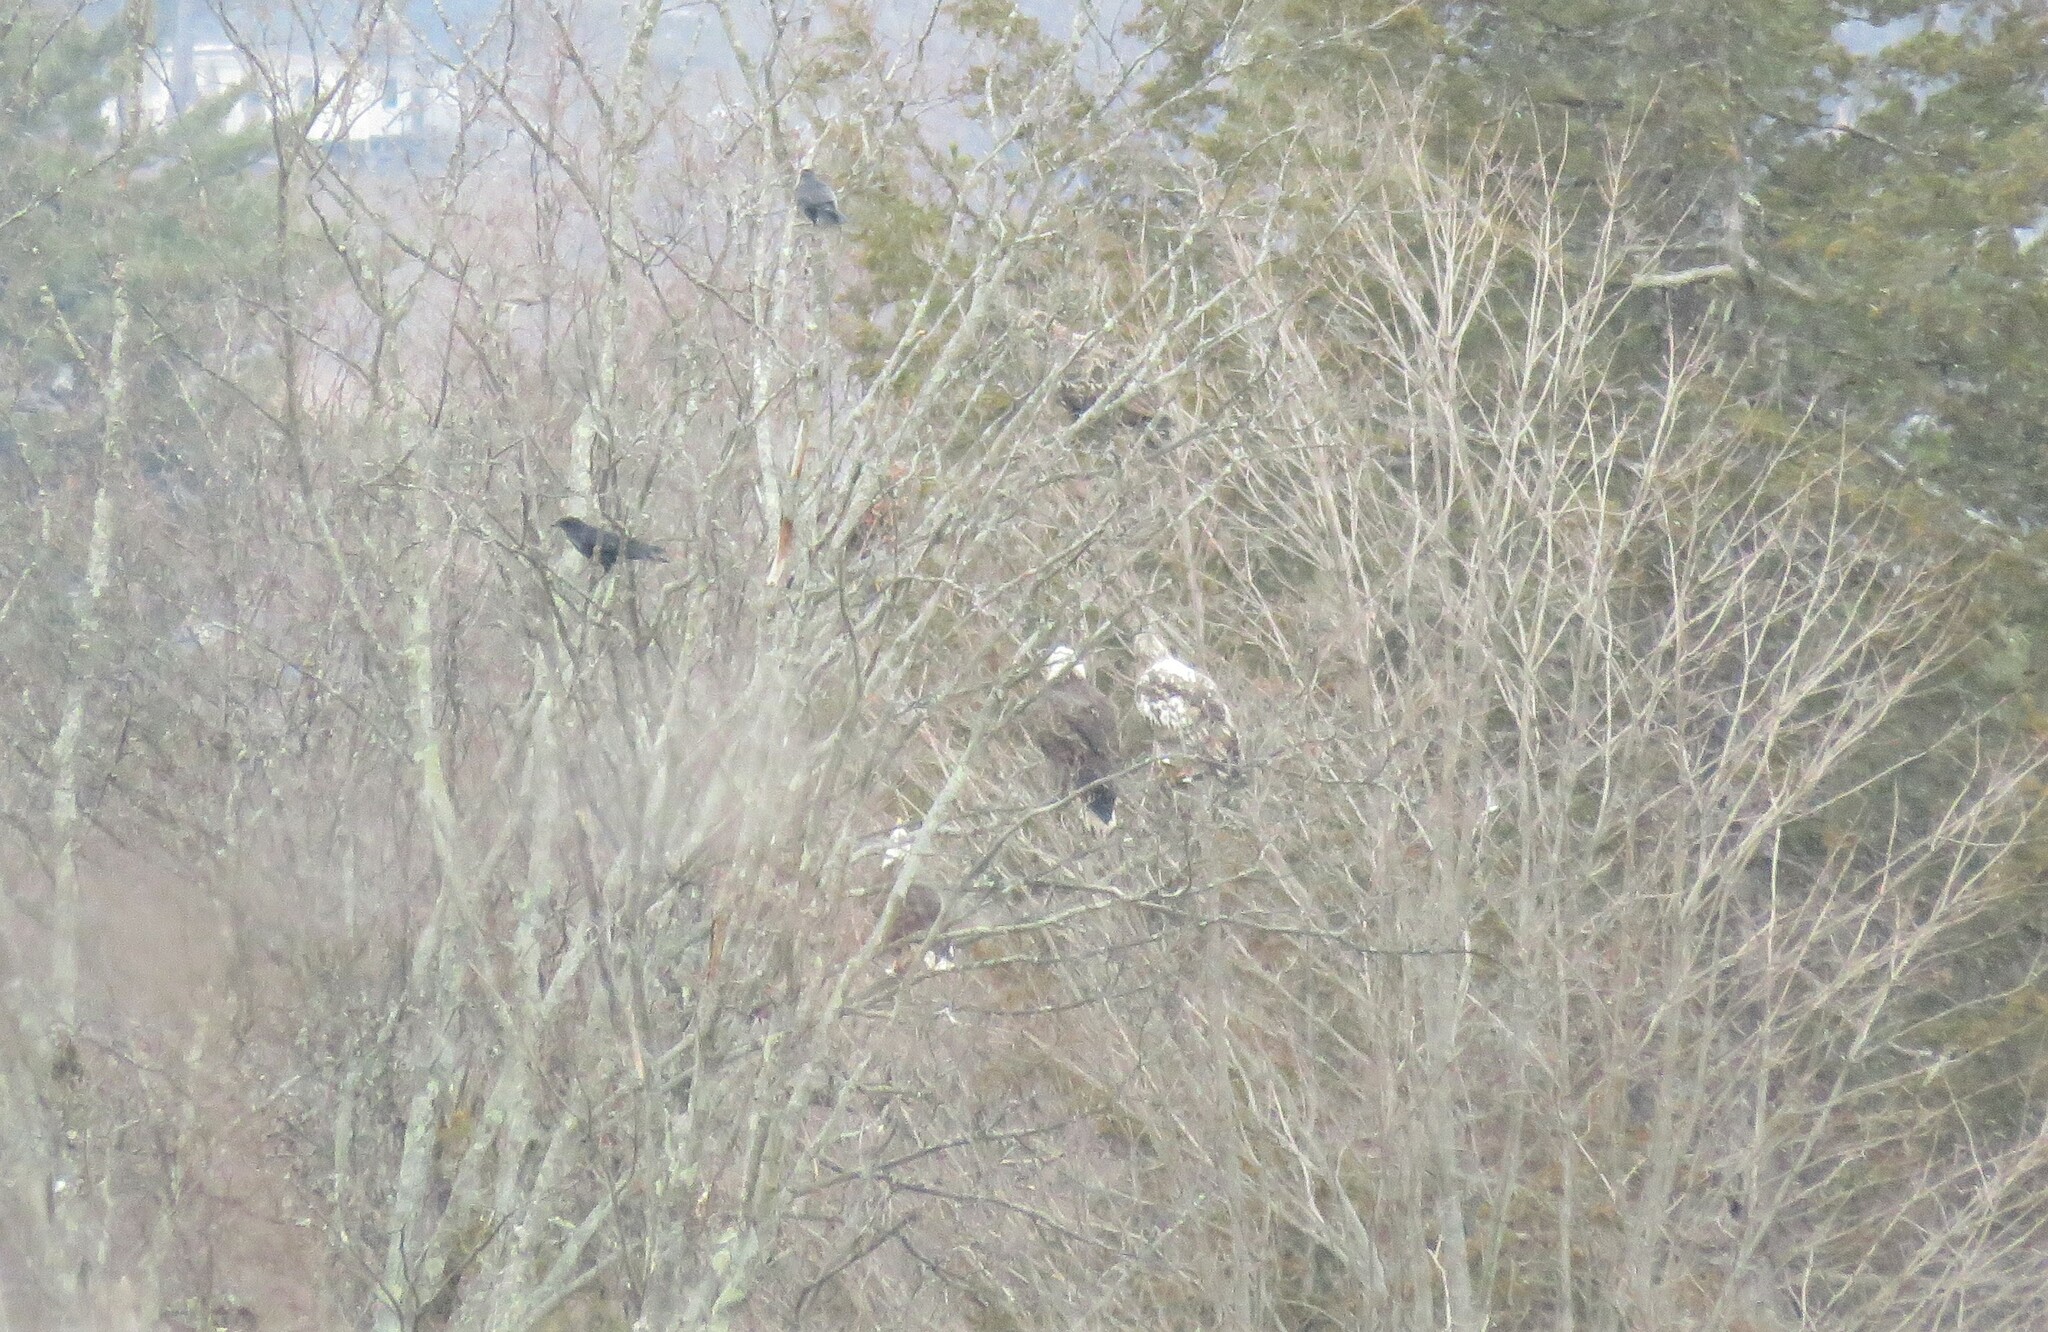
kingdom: Animalia
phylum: Chordata
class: Aves
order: Accipitriformes
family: Accipitridae
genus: Haliaeetus
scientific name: Haliaeetus leucocephalus
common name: Bald eagle
